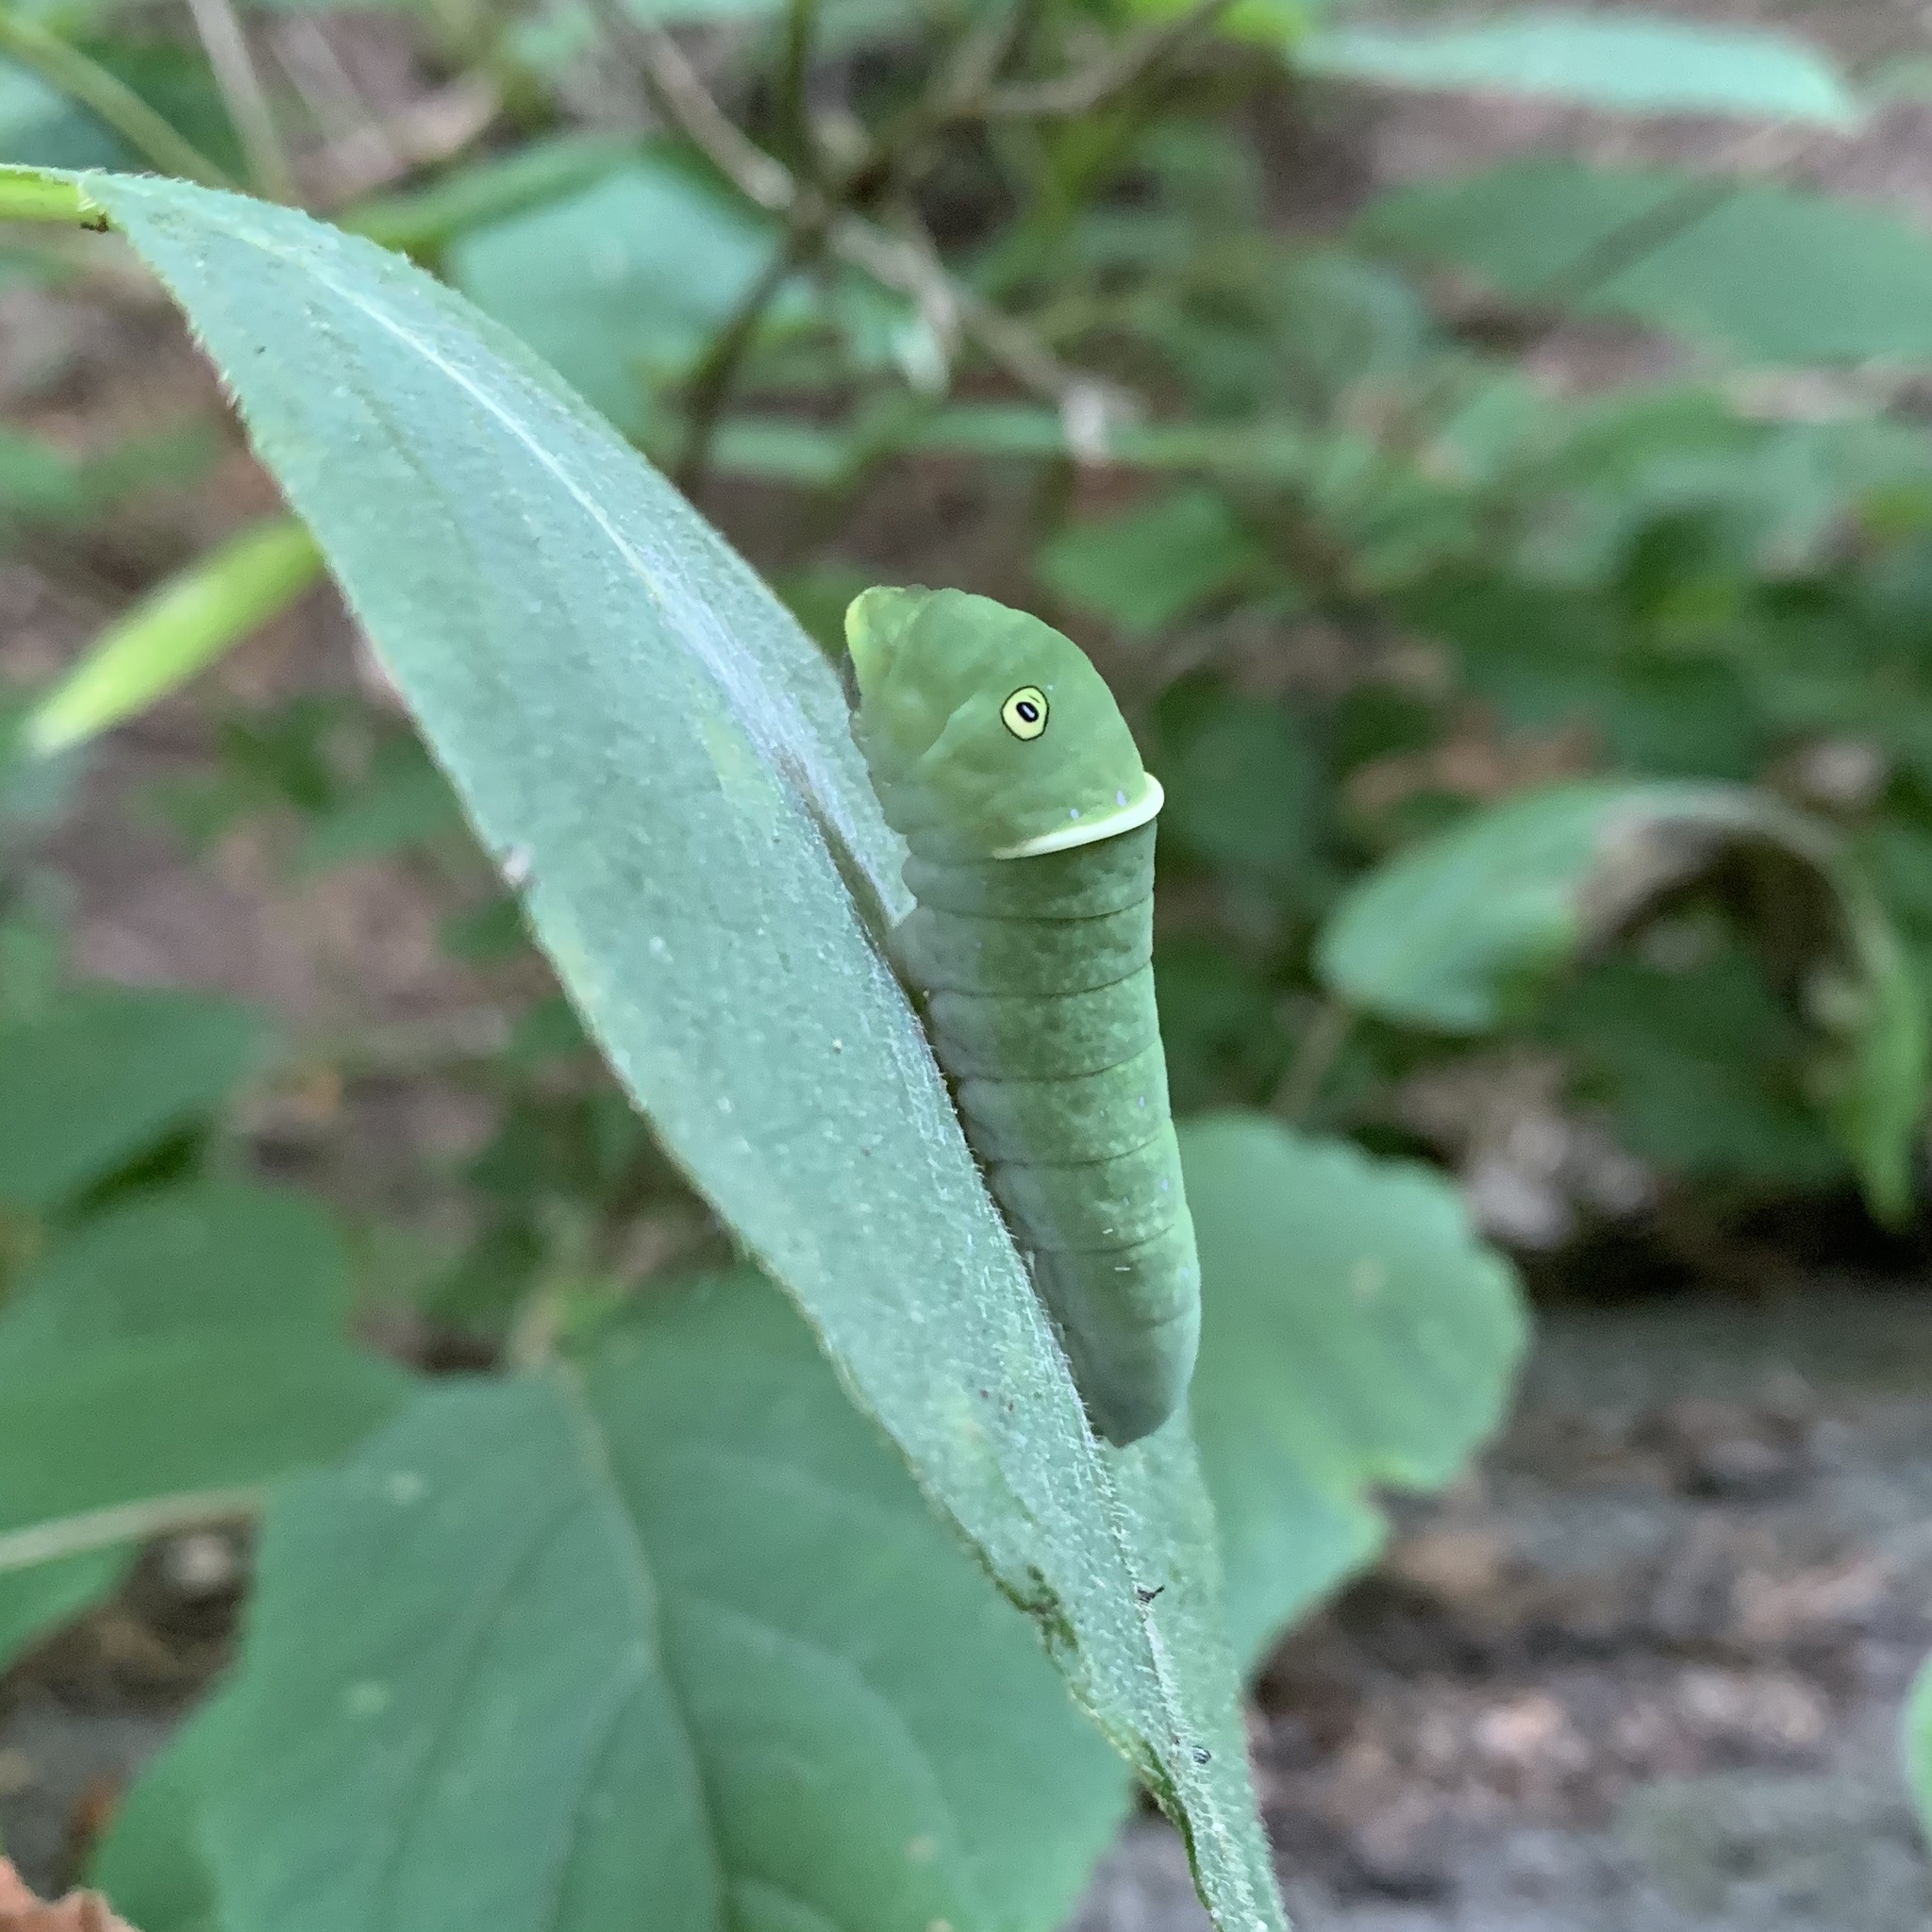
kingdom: Animalia
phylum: Arthropoda
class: Insecta
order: Lepidoptera
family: Papilionidae
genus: Papilio
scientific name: Papilio glaucus
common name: Tiger swallowtail
